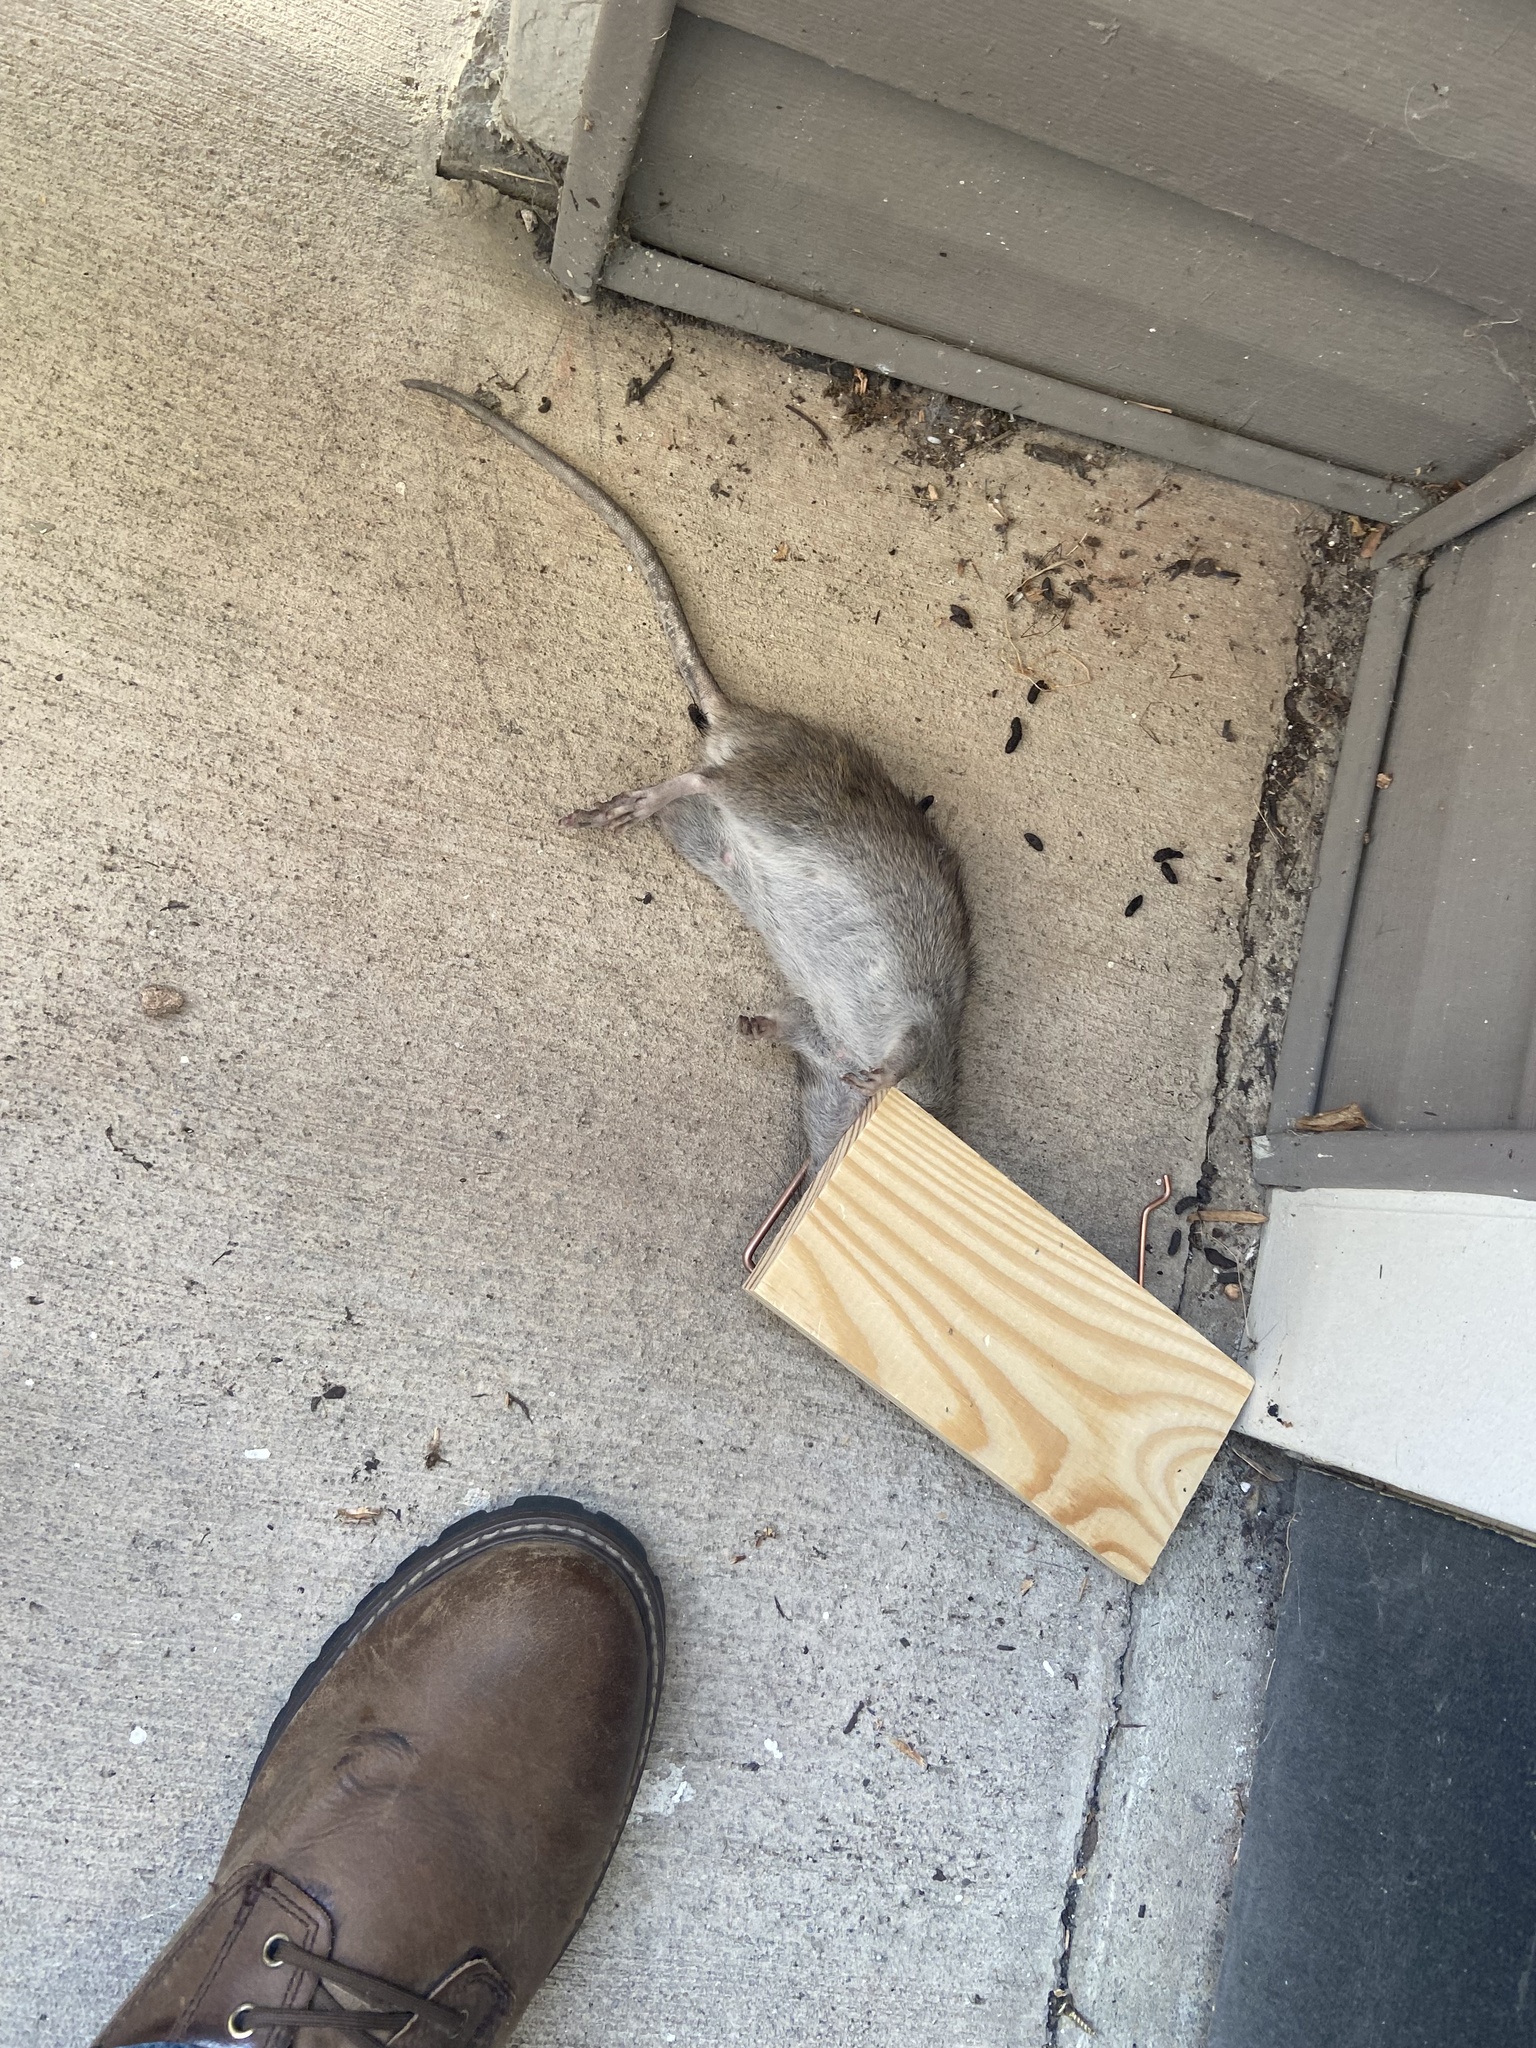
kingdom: Animalia
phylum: Chordata
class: Mammalia
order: Rodentia
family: Muridae
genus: Rattus
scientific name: Rattus norvegicus
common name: Brown rat
